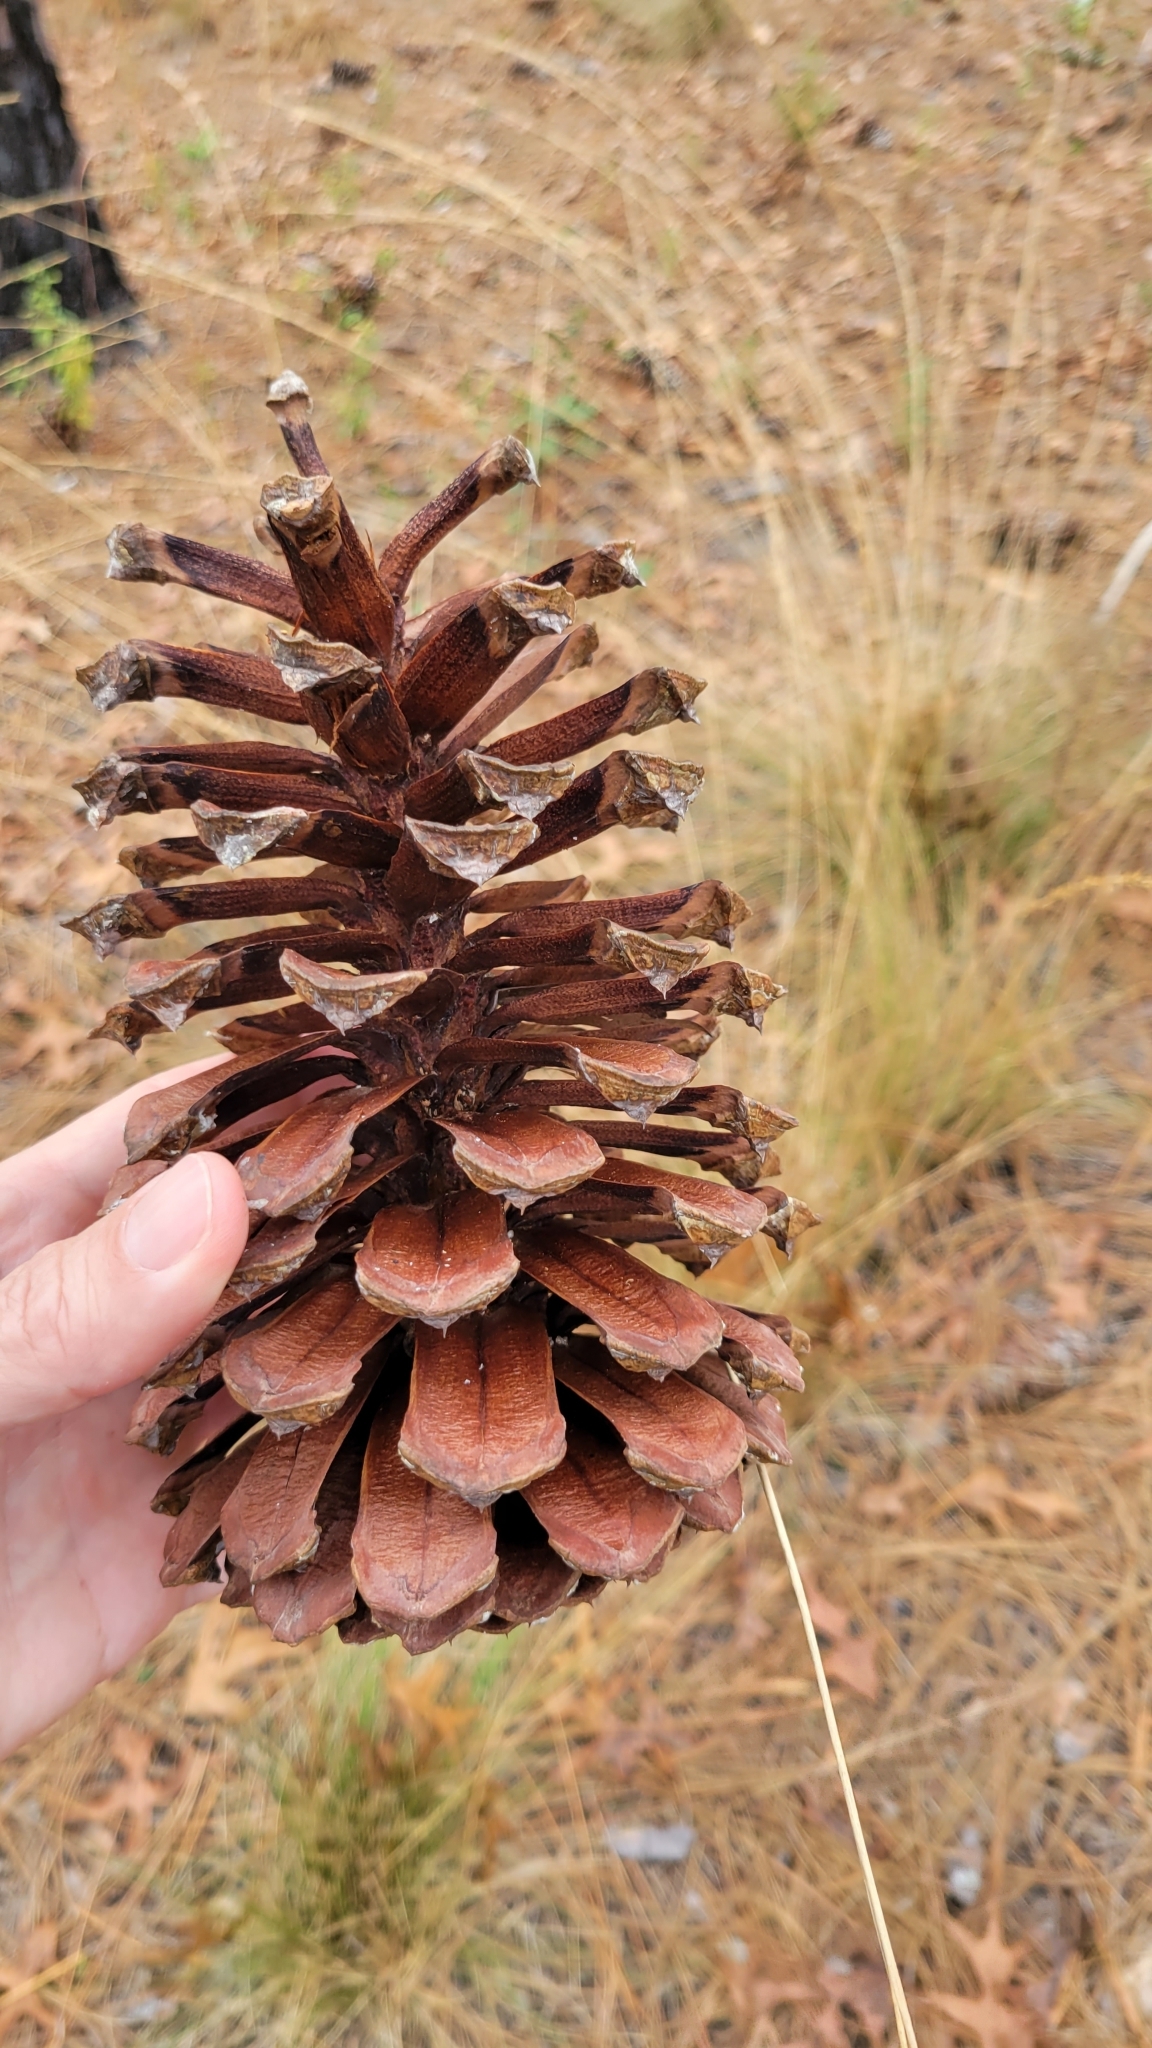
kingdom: Plantae
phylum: Tracheophyta
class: Pinopsida
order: Pinales
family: Pinaceae
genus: Pinus
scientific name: Pinus palustris
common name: Longleaf pine
